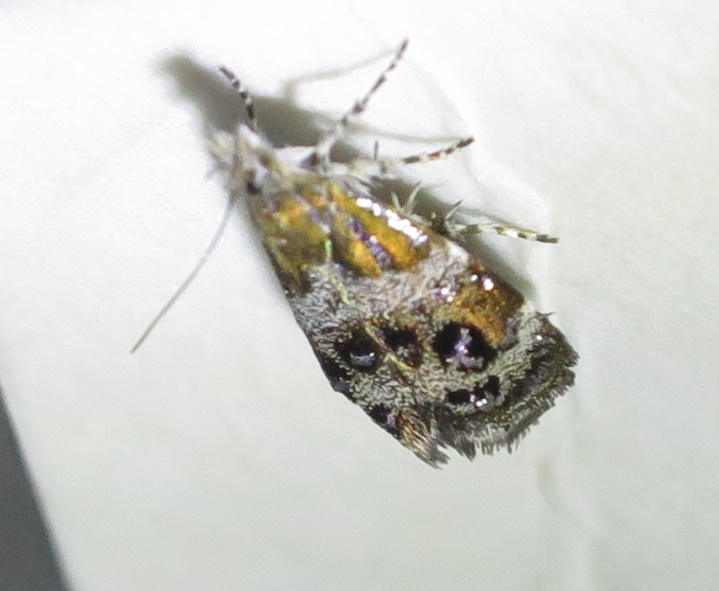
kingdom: Animalia
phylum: Arthropoda
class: Insecta
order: Lepidoptera
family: Choreutidae
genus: Tebenna
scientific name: Tebenna micalis
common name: Vagrant twitcher
